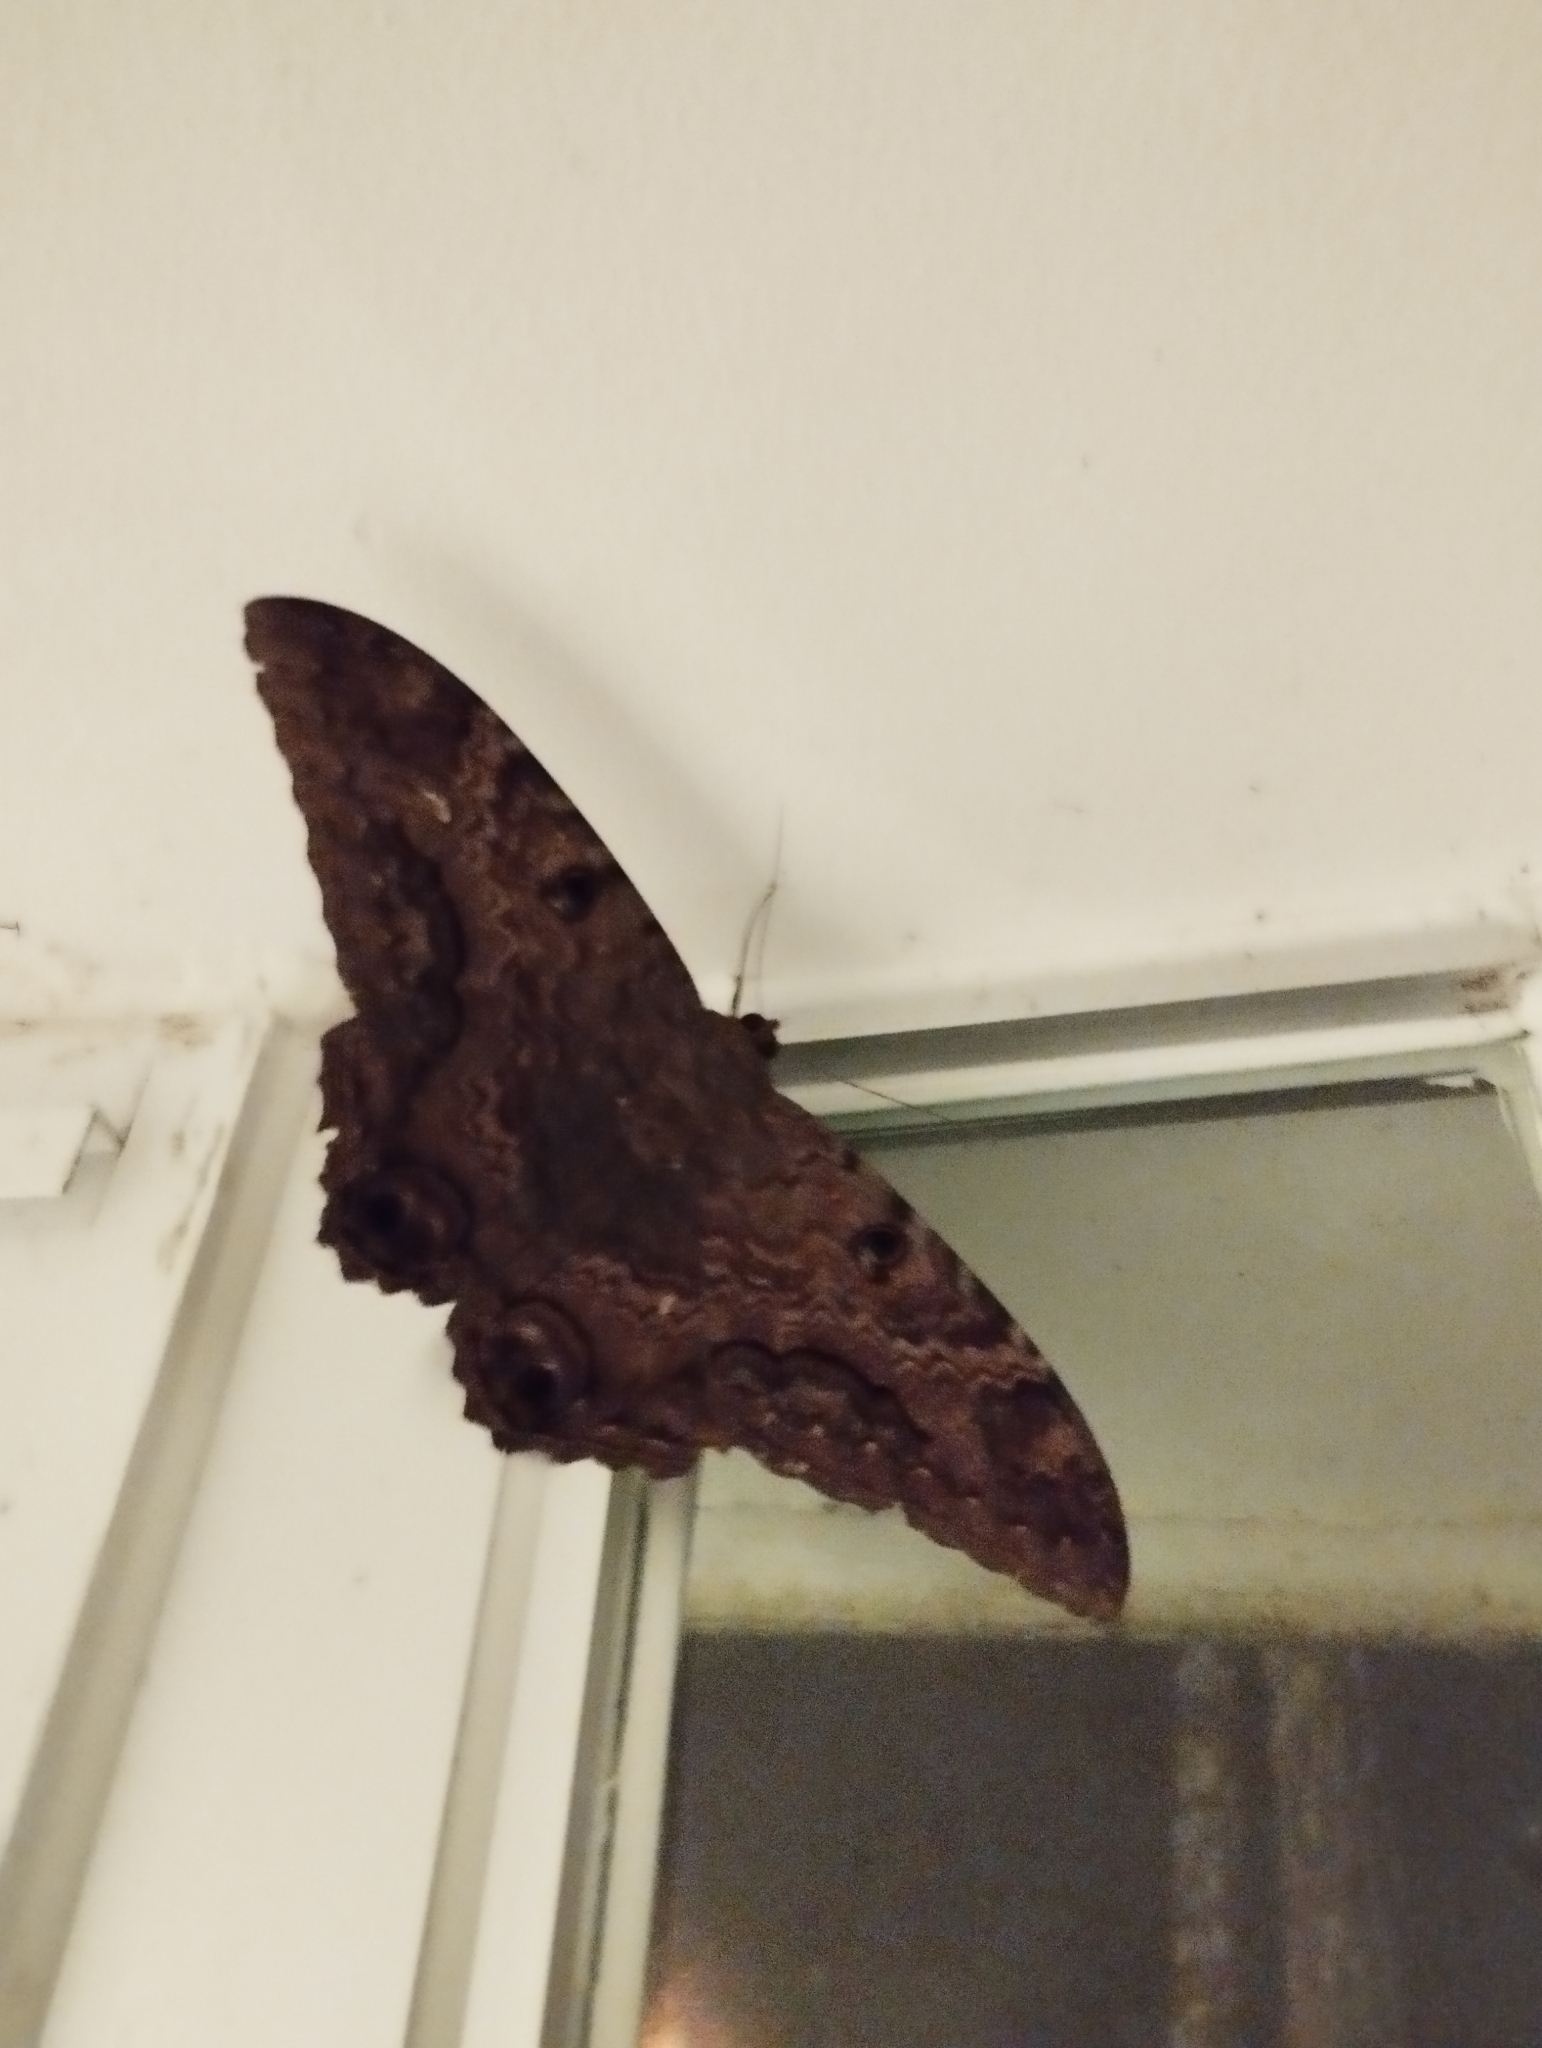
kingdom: Animalia
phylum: Arthropoda
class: Insecta
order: Lepidoptera
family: Erebidae
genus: Ascalapha
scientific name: Ascalapha odorata
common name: Black witch
